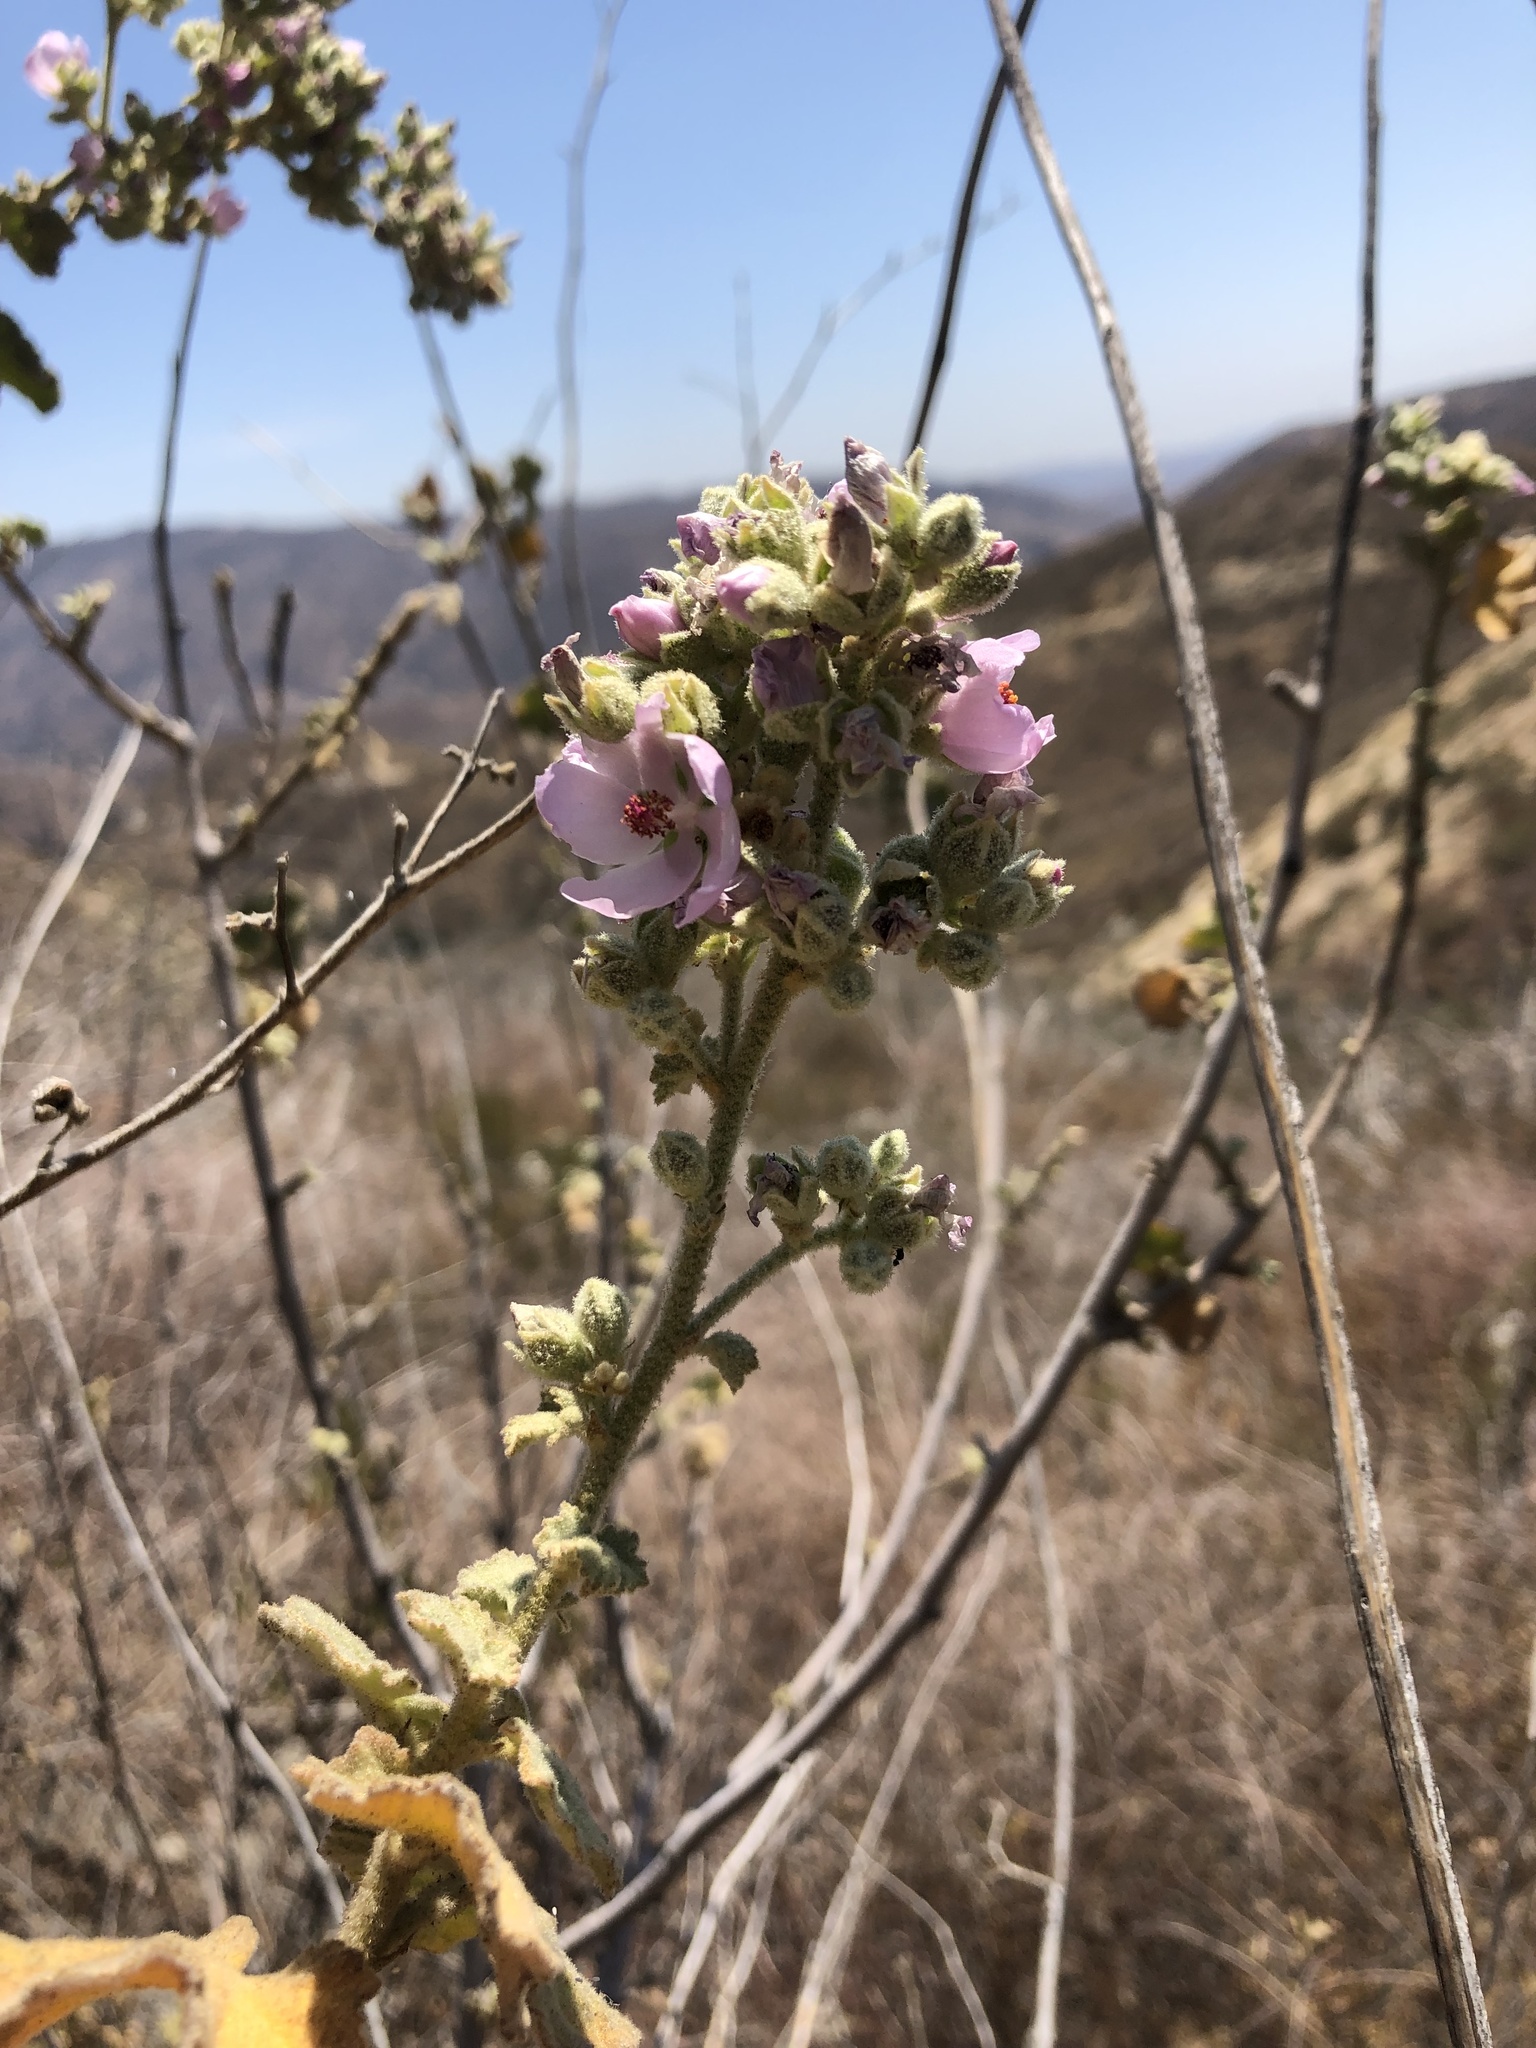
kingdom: Plantae
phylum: Tracheophyta
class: Magnoliopsida
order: Malvales
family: Malvaceae
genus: Malacothamnus
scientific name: Malacothamnus davidsonii
